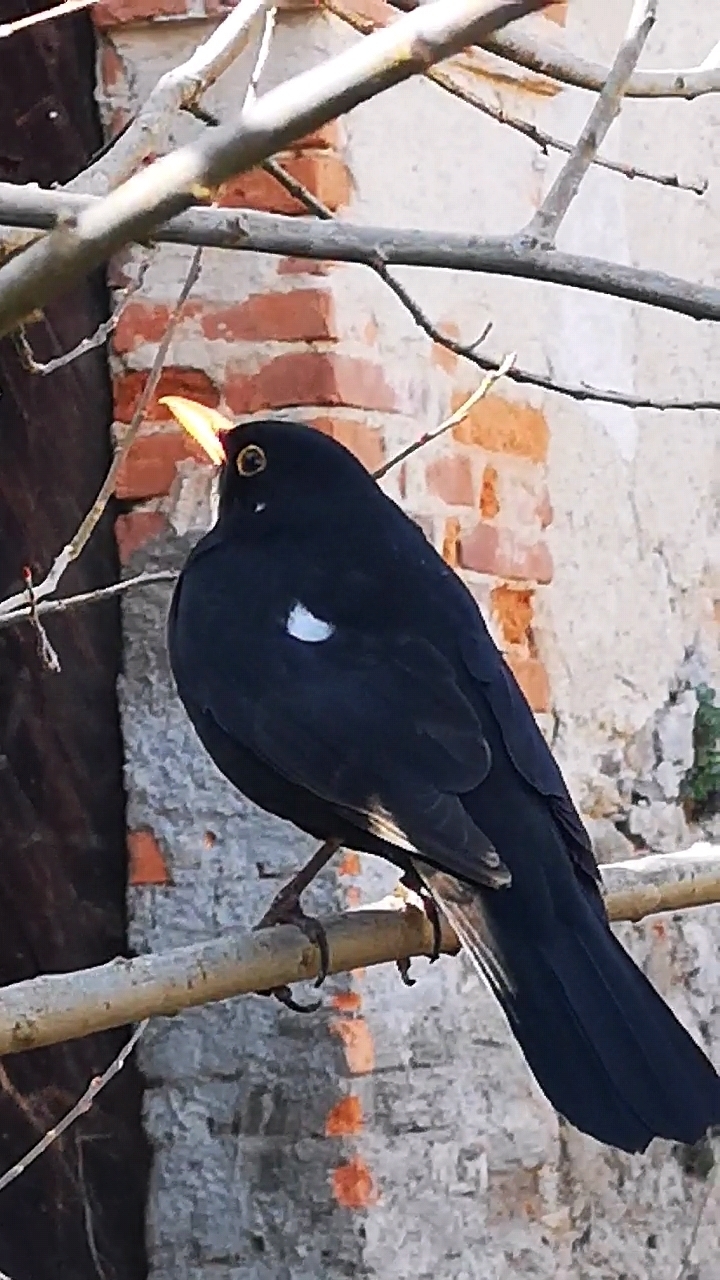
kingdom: Animalia
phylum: Chordata
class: Aves
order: Passeriformes
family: Turdidae
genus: Turdus
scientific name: Turdus merula
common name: Common blackbird
